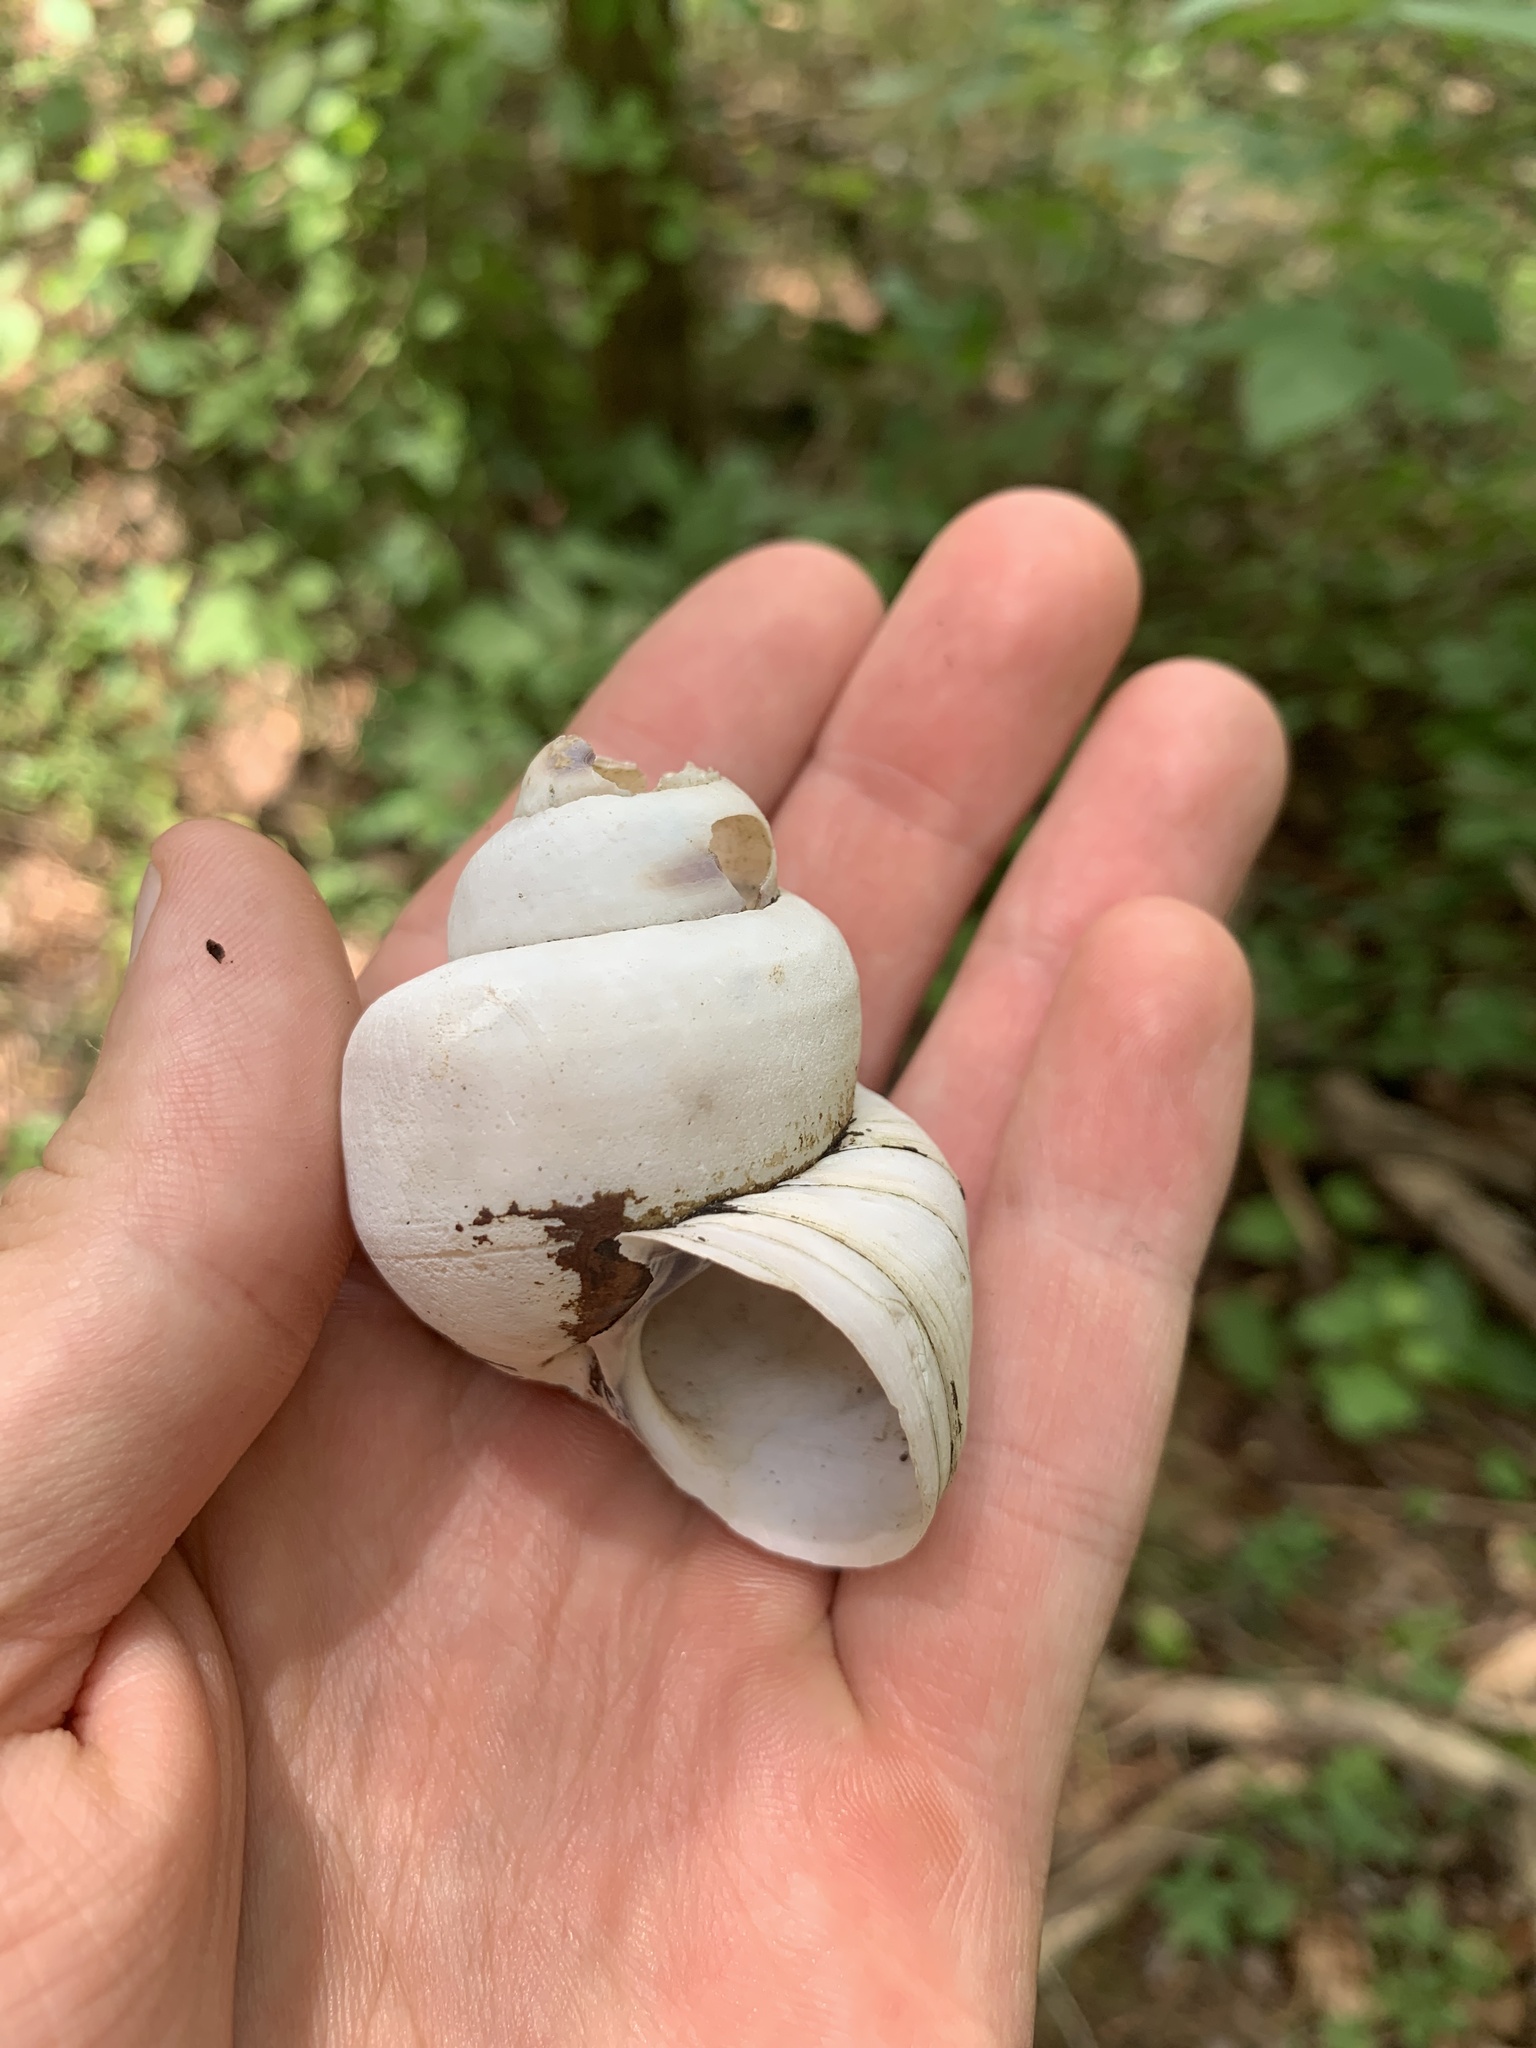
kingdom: Animalia
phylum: Mollusca
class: Gastropoda
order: Architaenioglossa
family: Viviparidae
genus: Cipangopaludina
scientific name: Cipangopaludina chinensis
